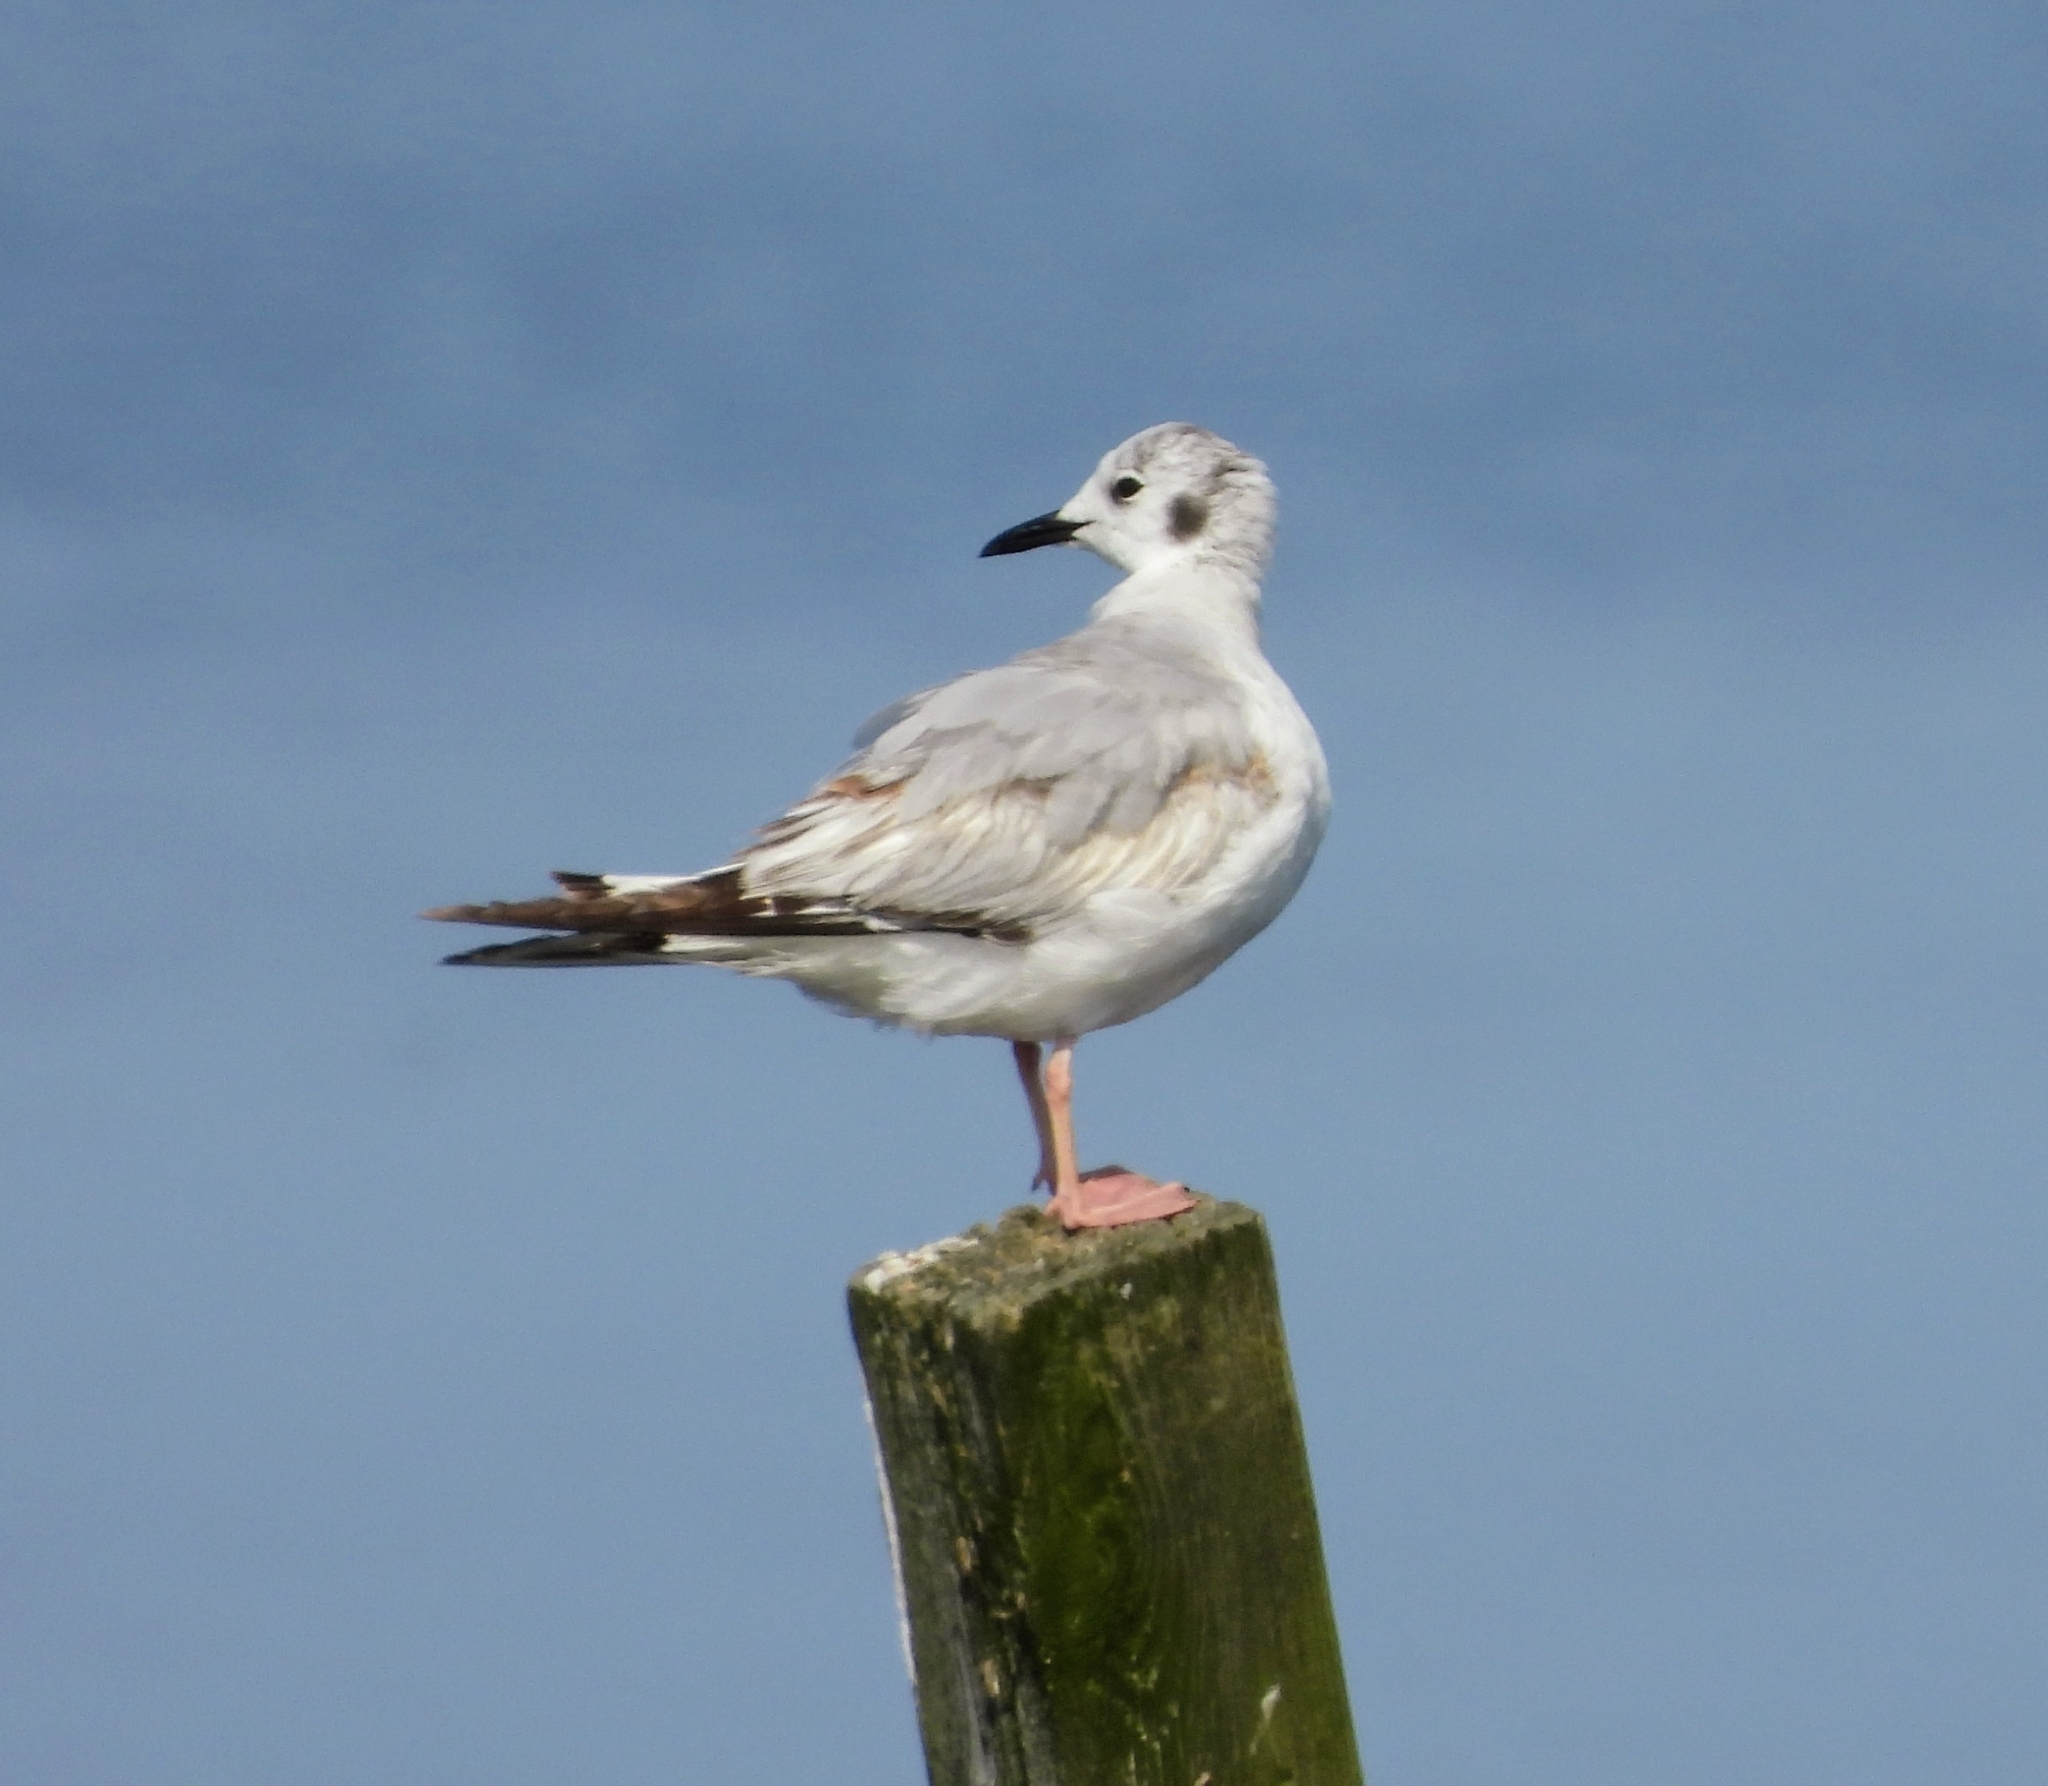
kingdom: Animalia
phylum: Chordata
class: Aves
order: Charadriiformes
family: Laridae
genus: Chroicocephalus
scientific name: Chroicocephalus philadelphia
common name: Bonaparte's gull
